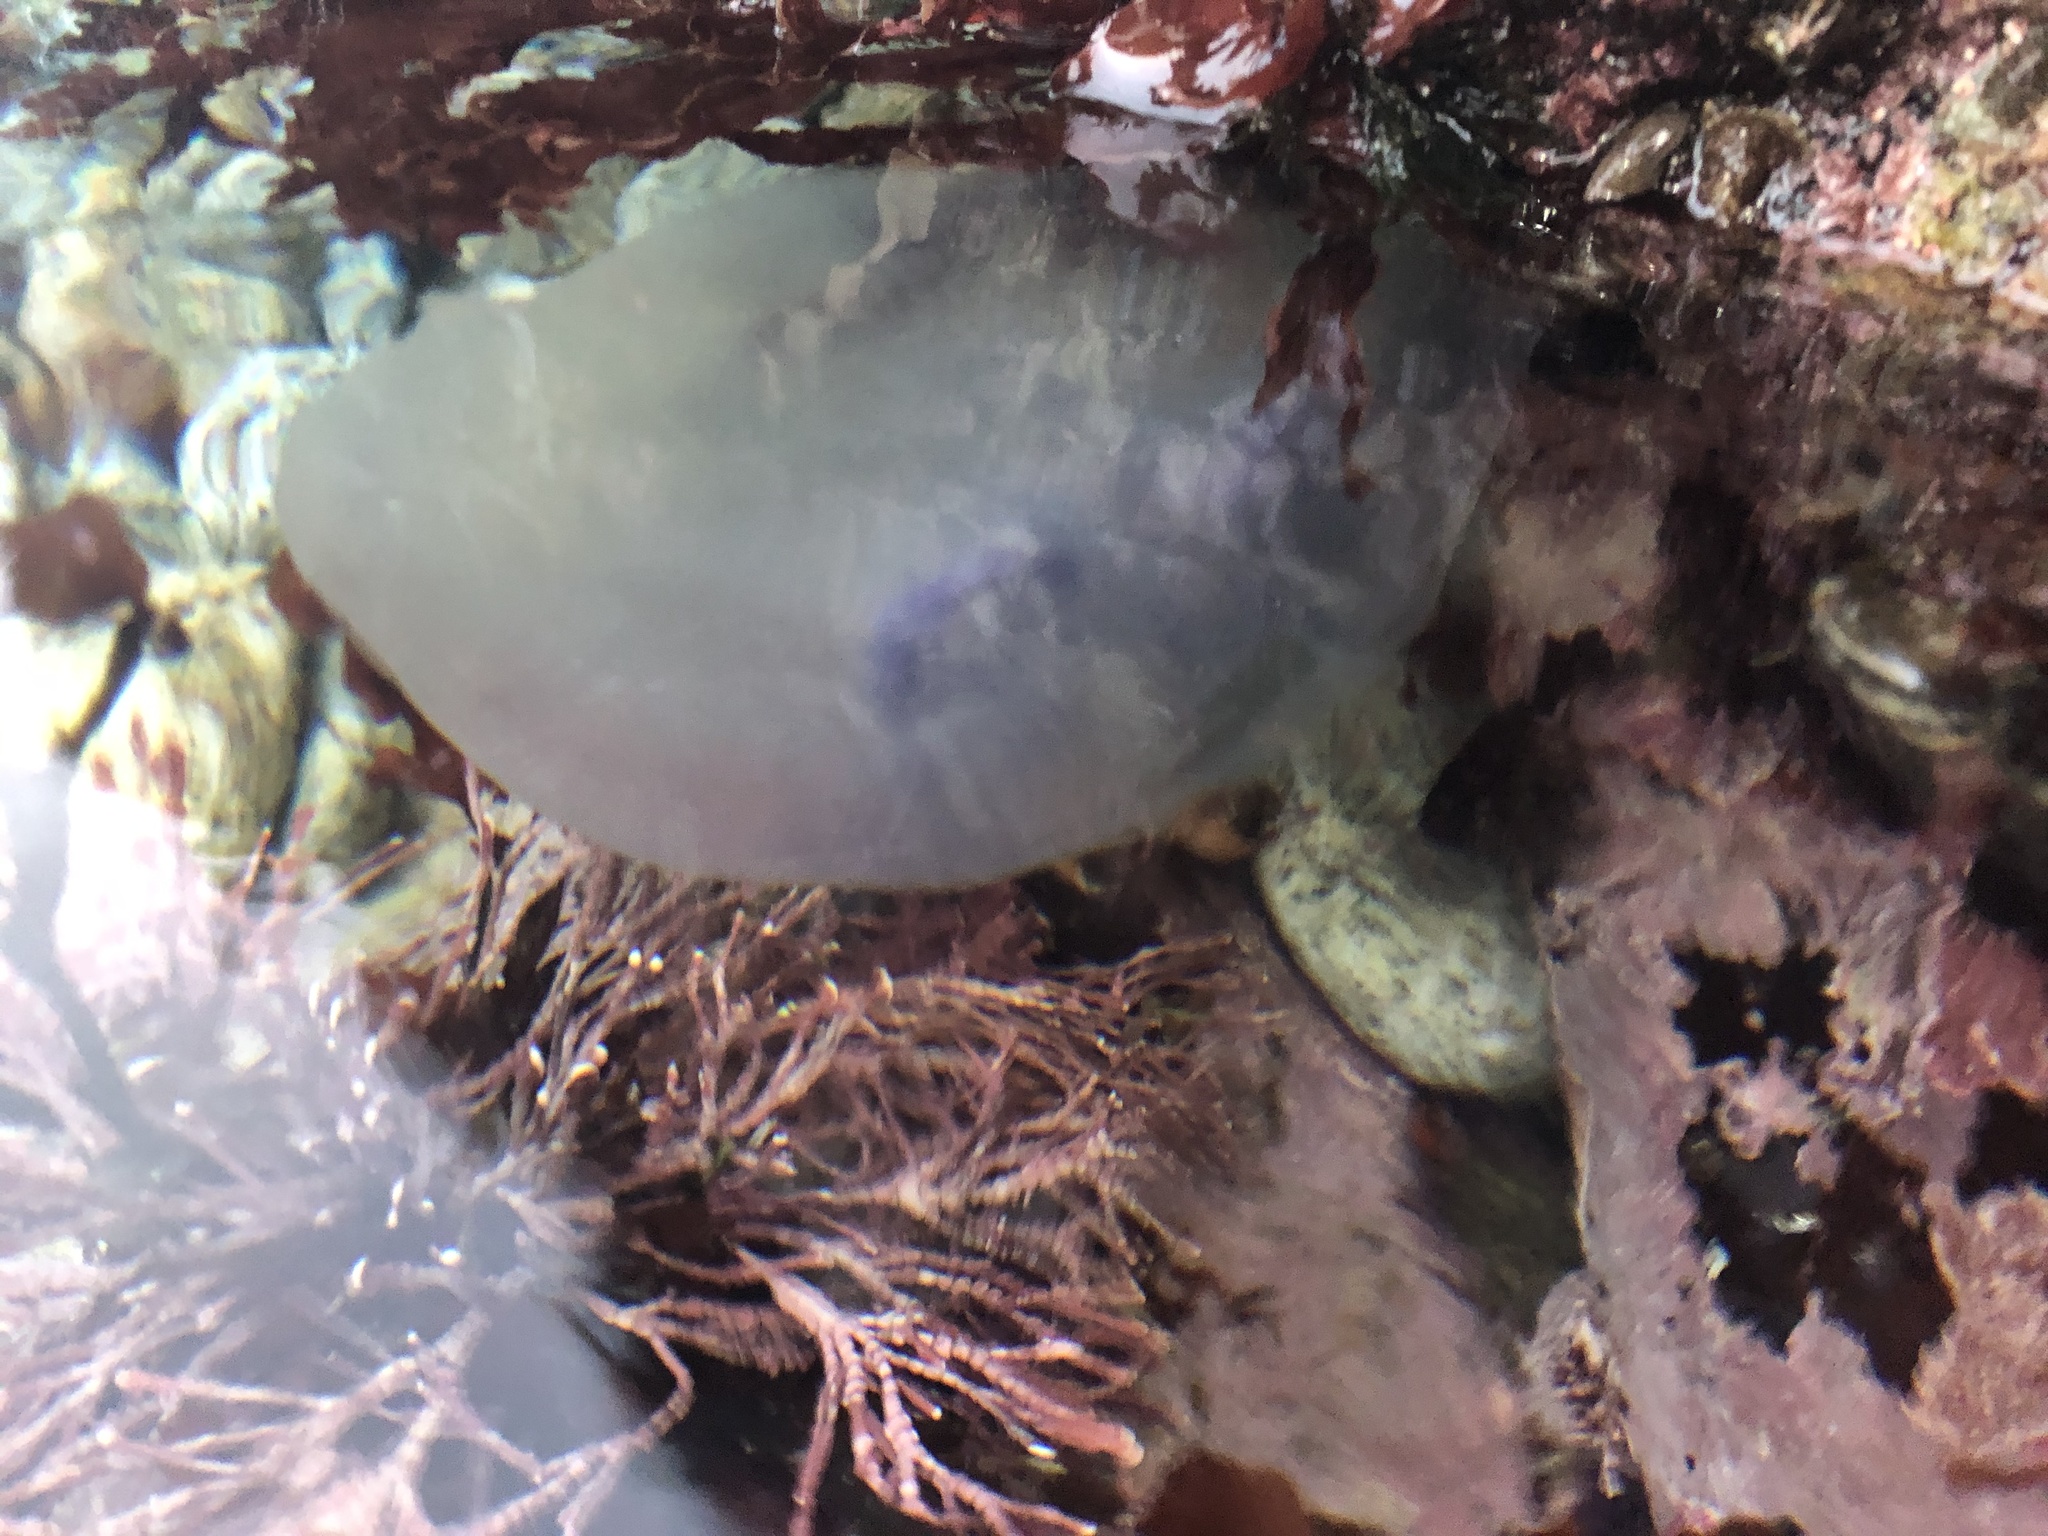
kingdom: Animalia
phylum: Cnidaria
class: Scyphozoa
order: Semaeostomeae
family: Ulmaridae
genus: Aurelia
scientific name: Aurelia labiata
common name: Pacific moon jelly
